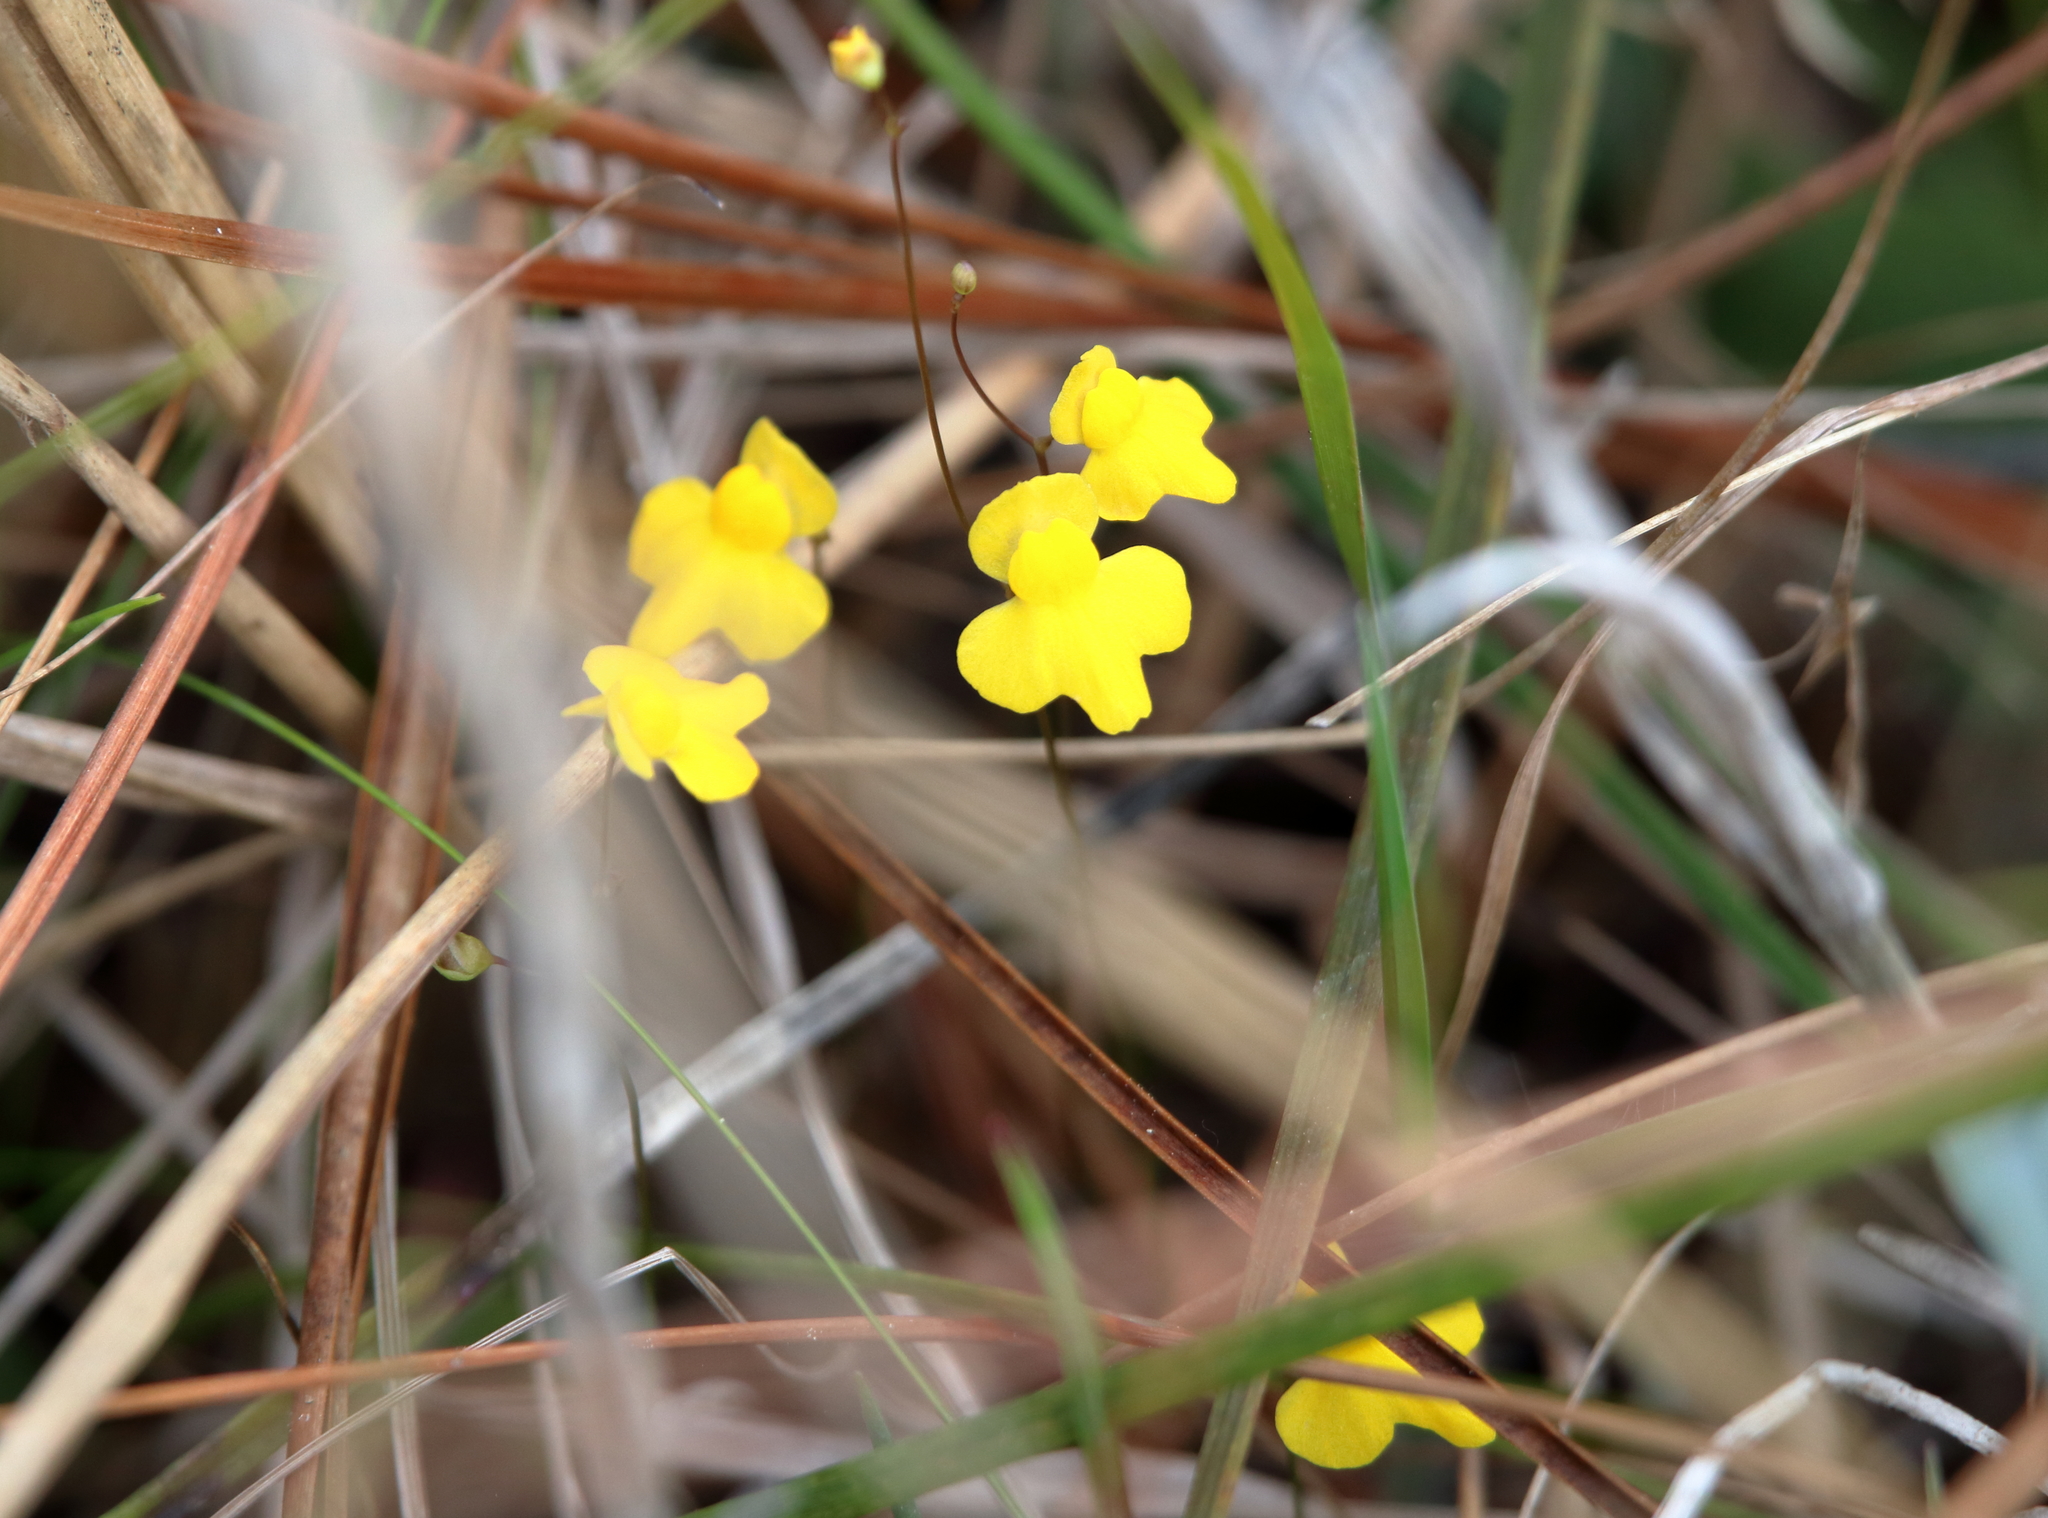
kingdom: Plantae
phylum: Tracheophyta
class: Magnoliopsida
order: Lamiales
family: Lentibulariaceae
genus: Utricularia
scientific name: Utricularia subulata
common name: Tiny bladderwort
